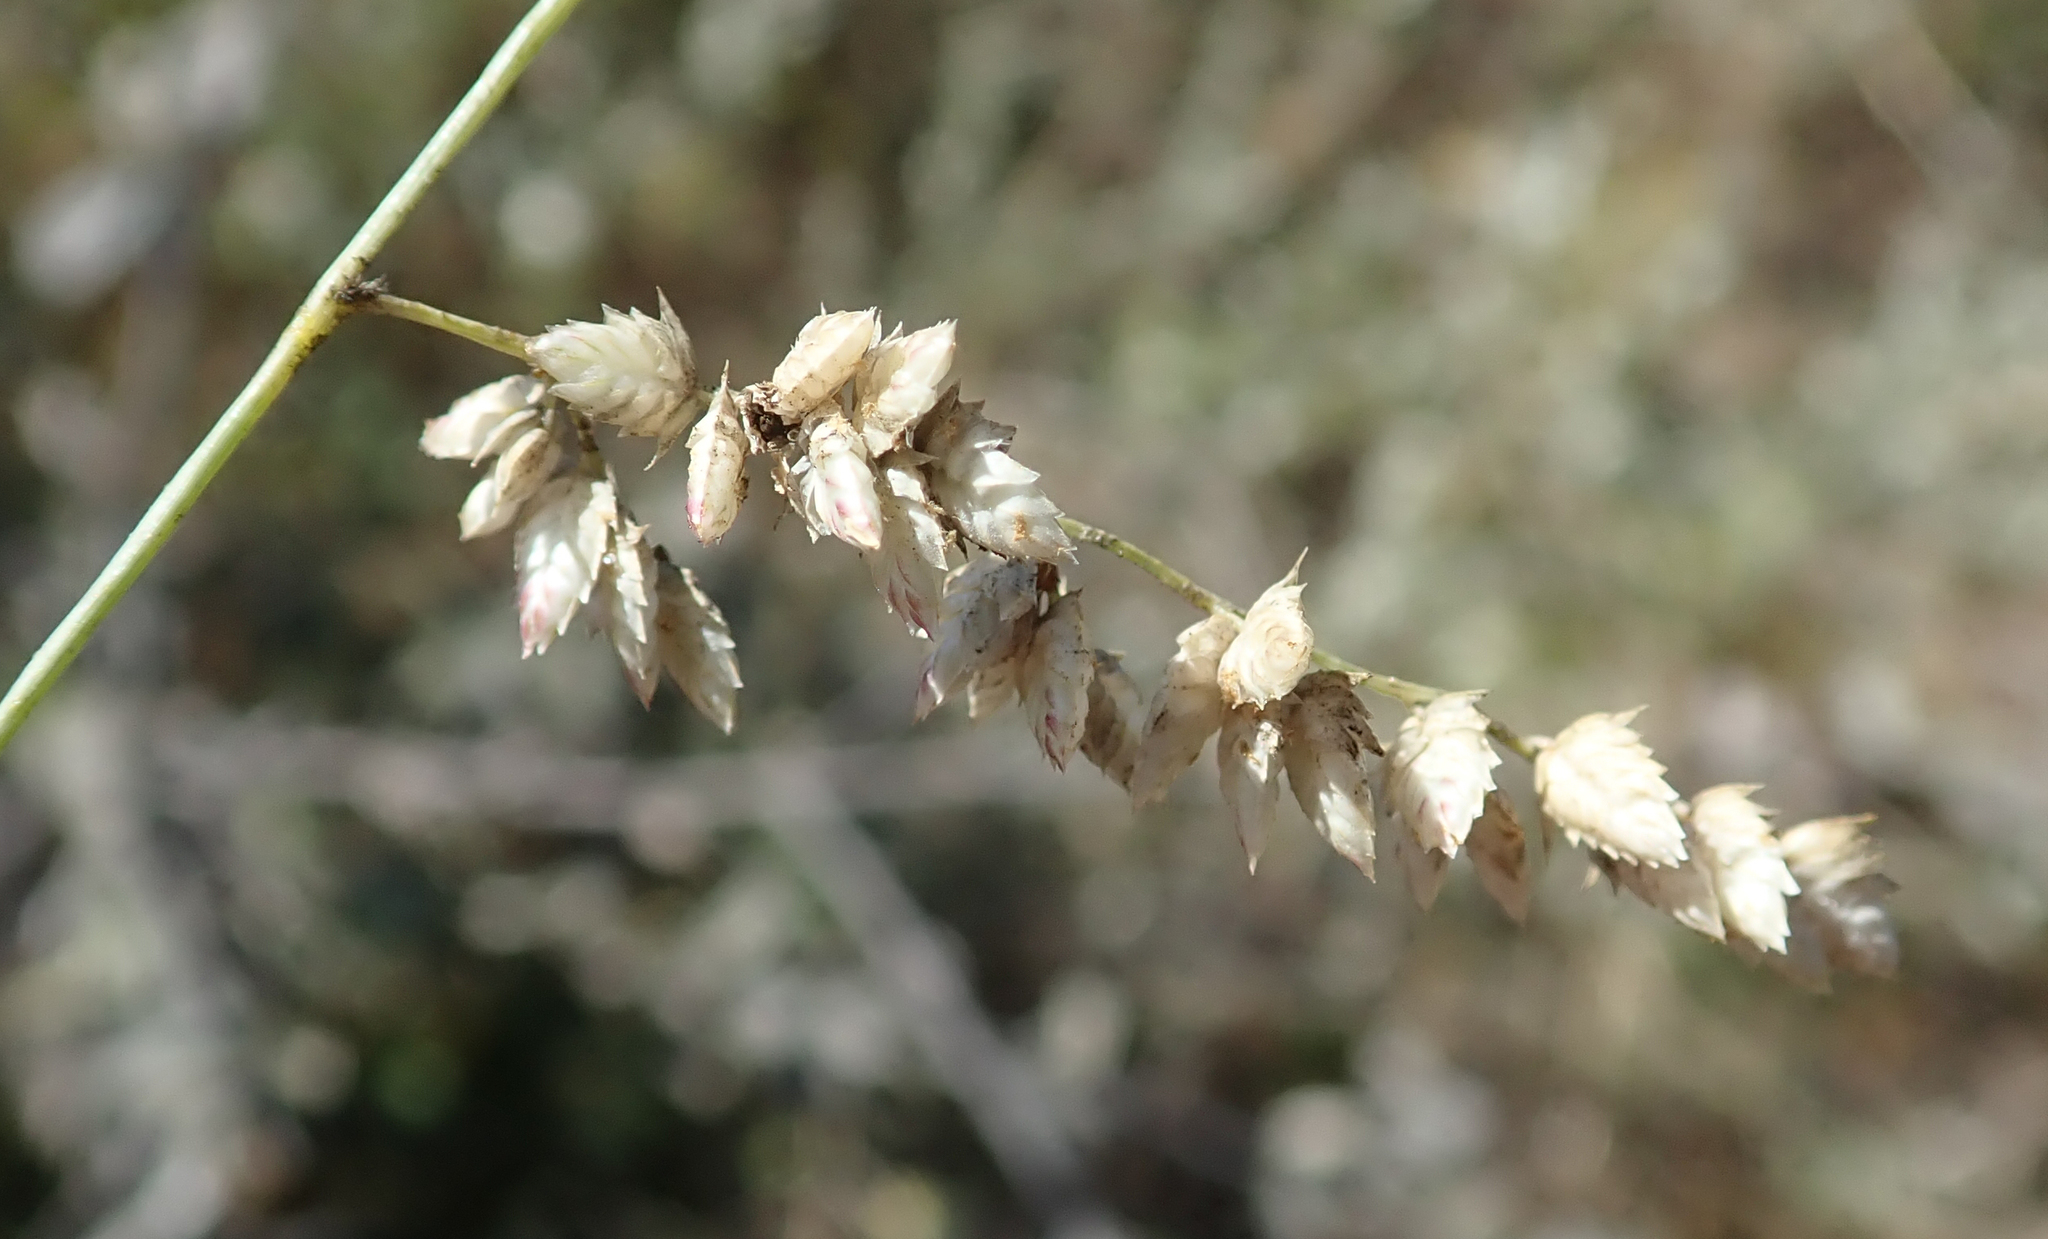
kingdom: Plantae
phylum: Tracheophyta
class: Liliopsida
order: Poales
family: Poaceae
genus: Eragrostis
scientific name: Eragrostis echinochloidea
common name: African lovegrass
